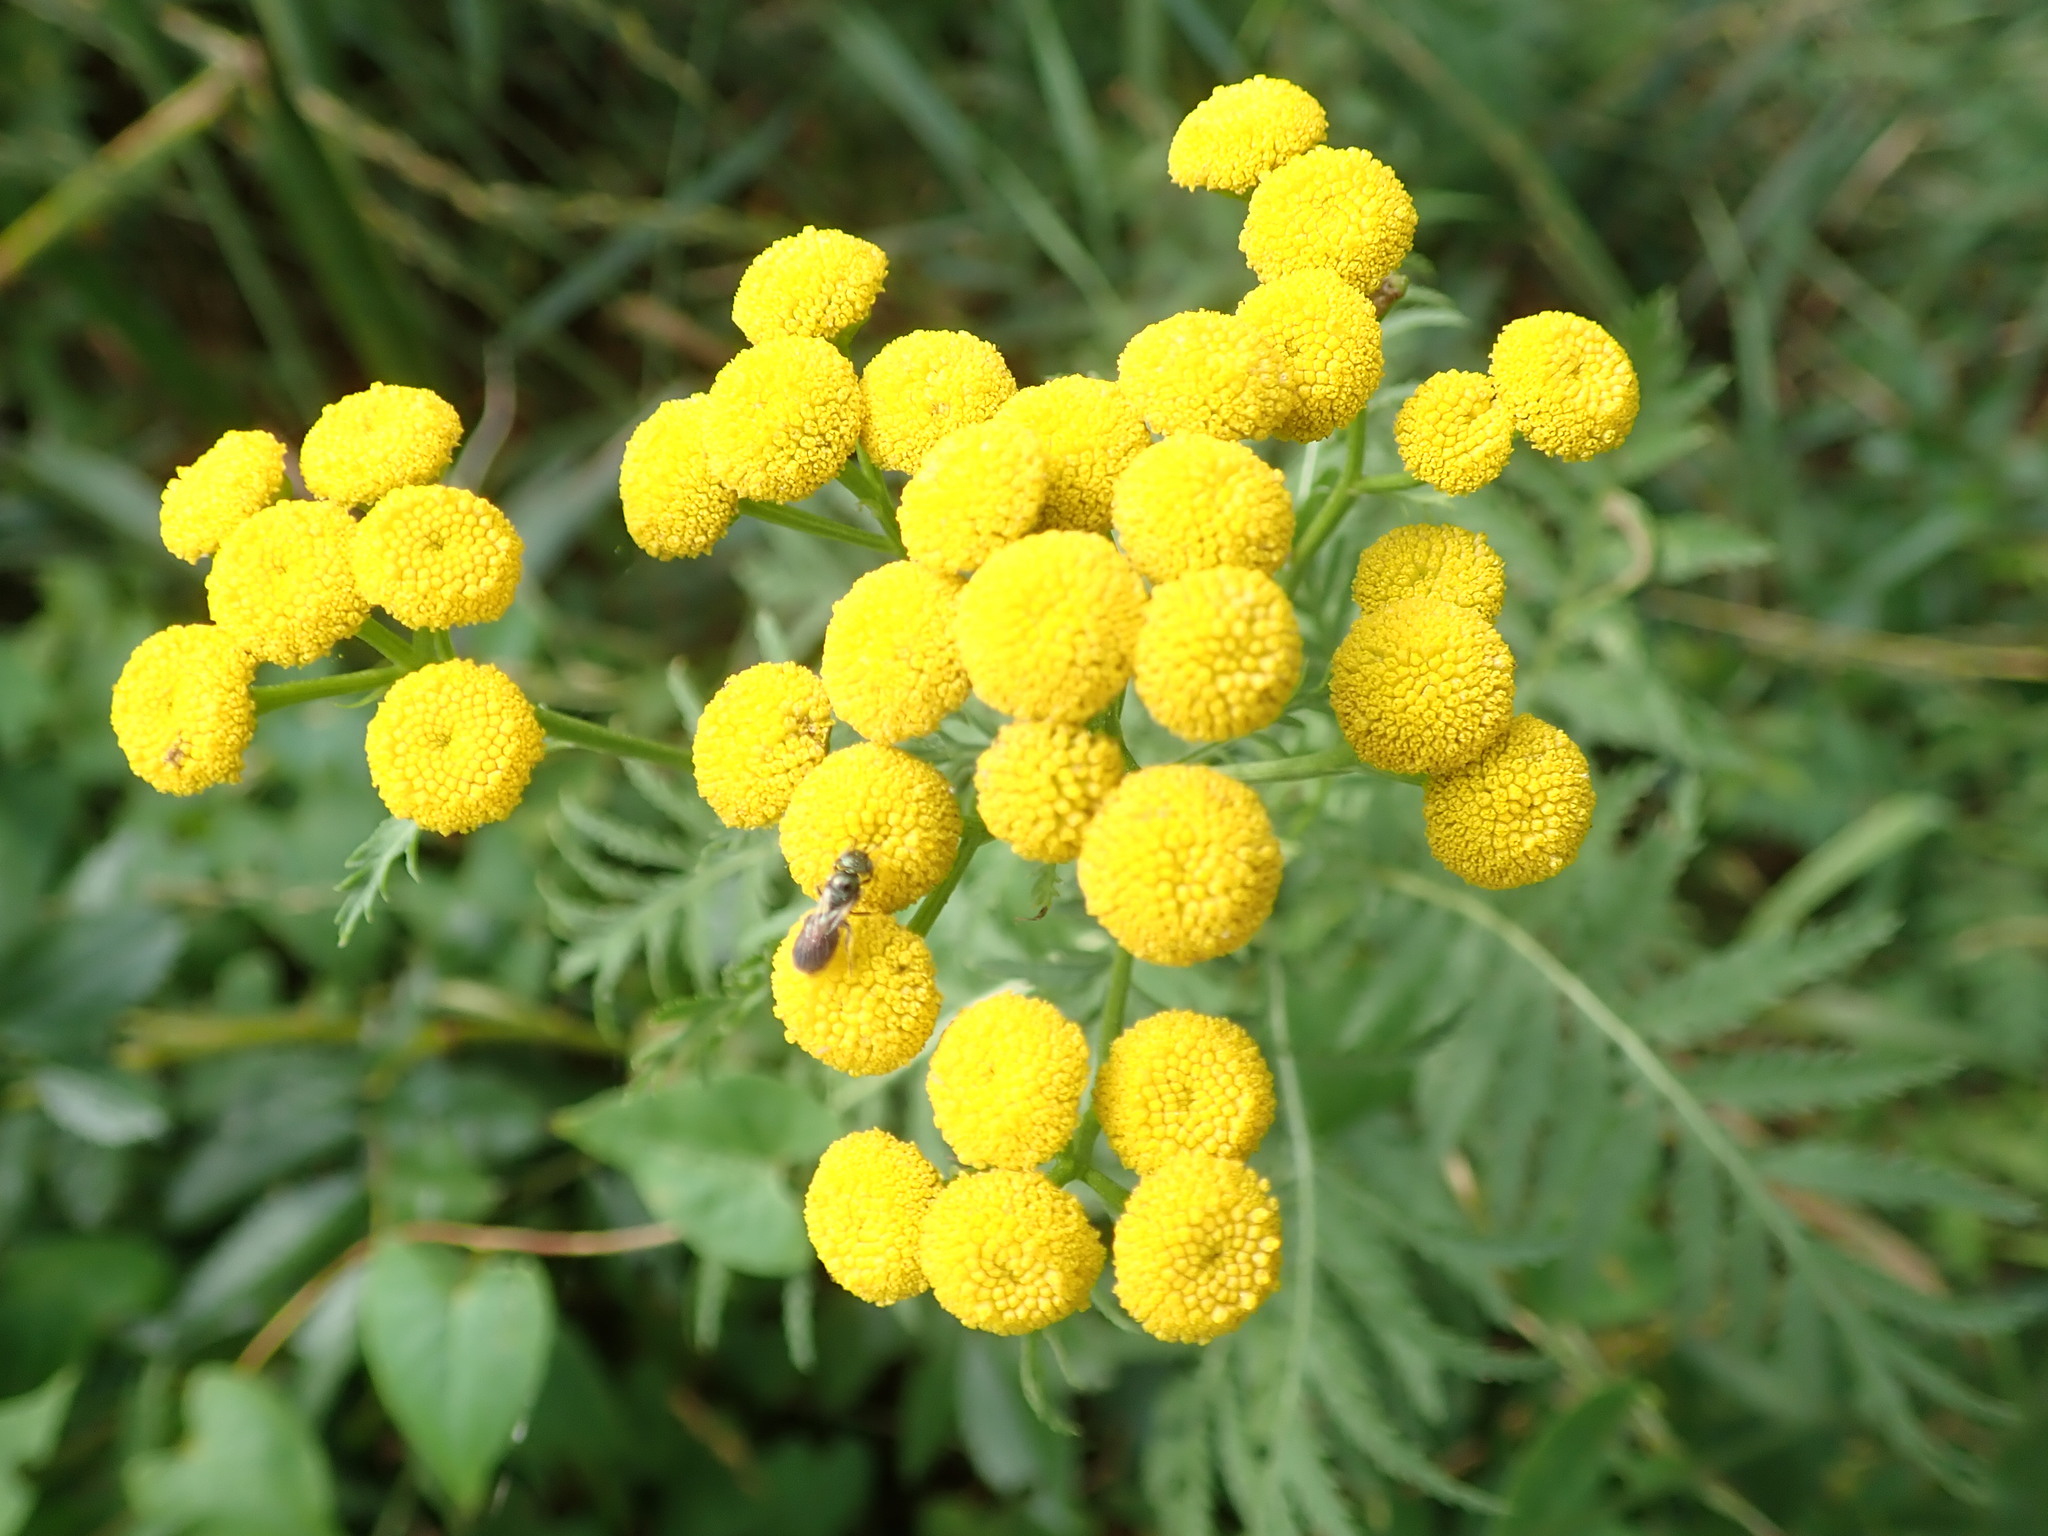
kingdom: Plantae
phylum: Tracheophyta
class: Magnoliopsida
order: Asterales
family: Asteraceae
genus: Tanacetum
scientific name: Tanacetum vulgare
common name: Common tansy
